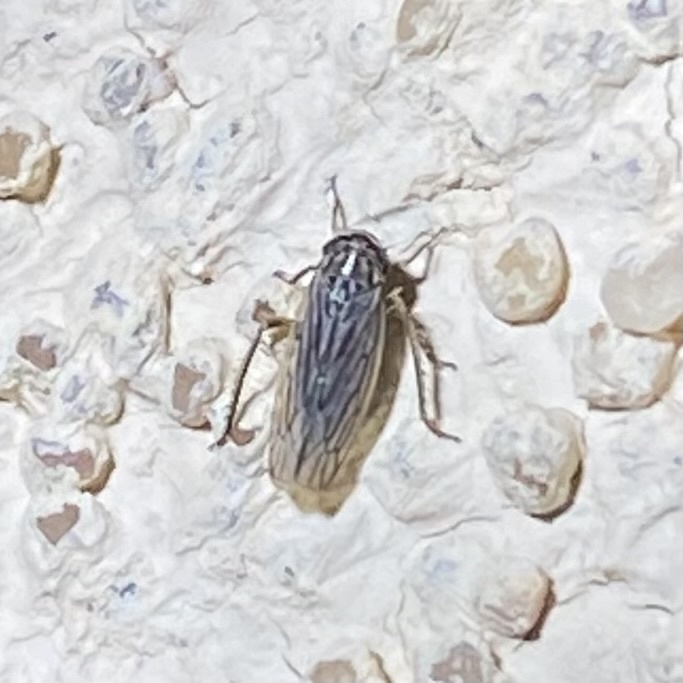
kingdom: Animalia
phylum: Arthropoda
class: Insecta
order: Hemiptera
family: Cicadellidae
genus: Exitianus
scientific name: Exitianus
